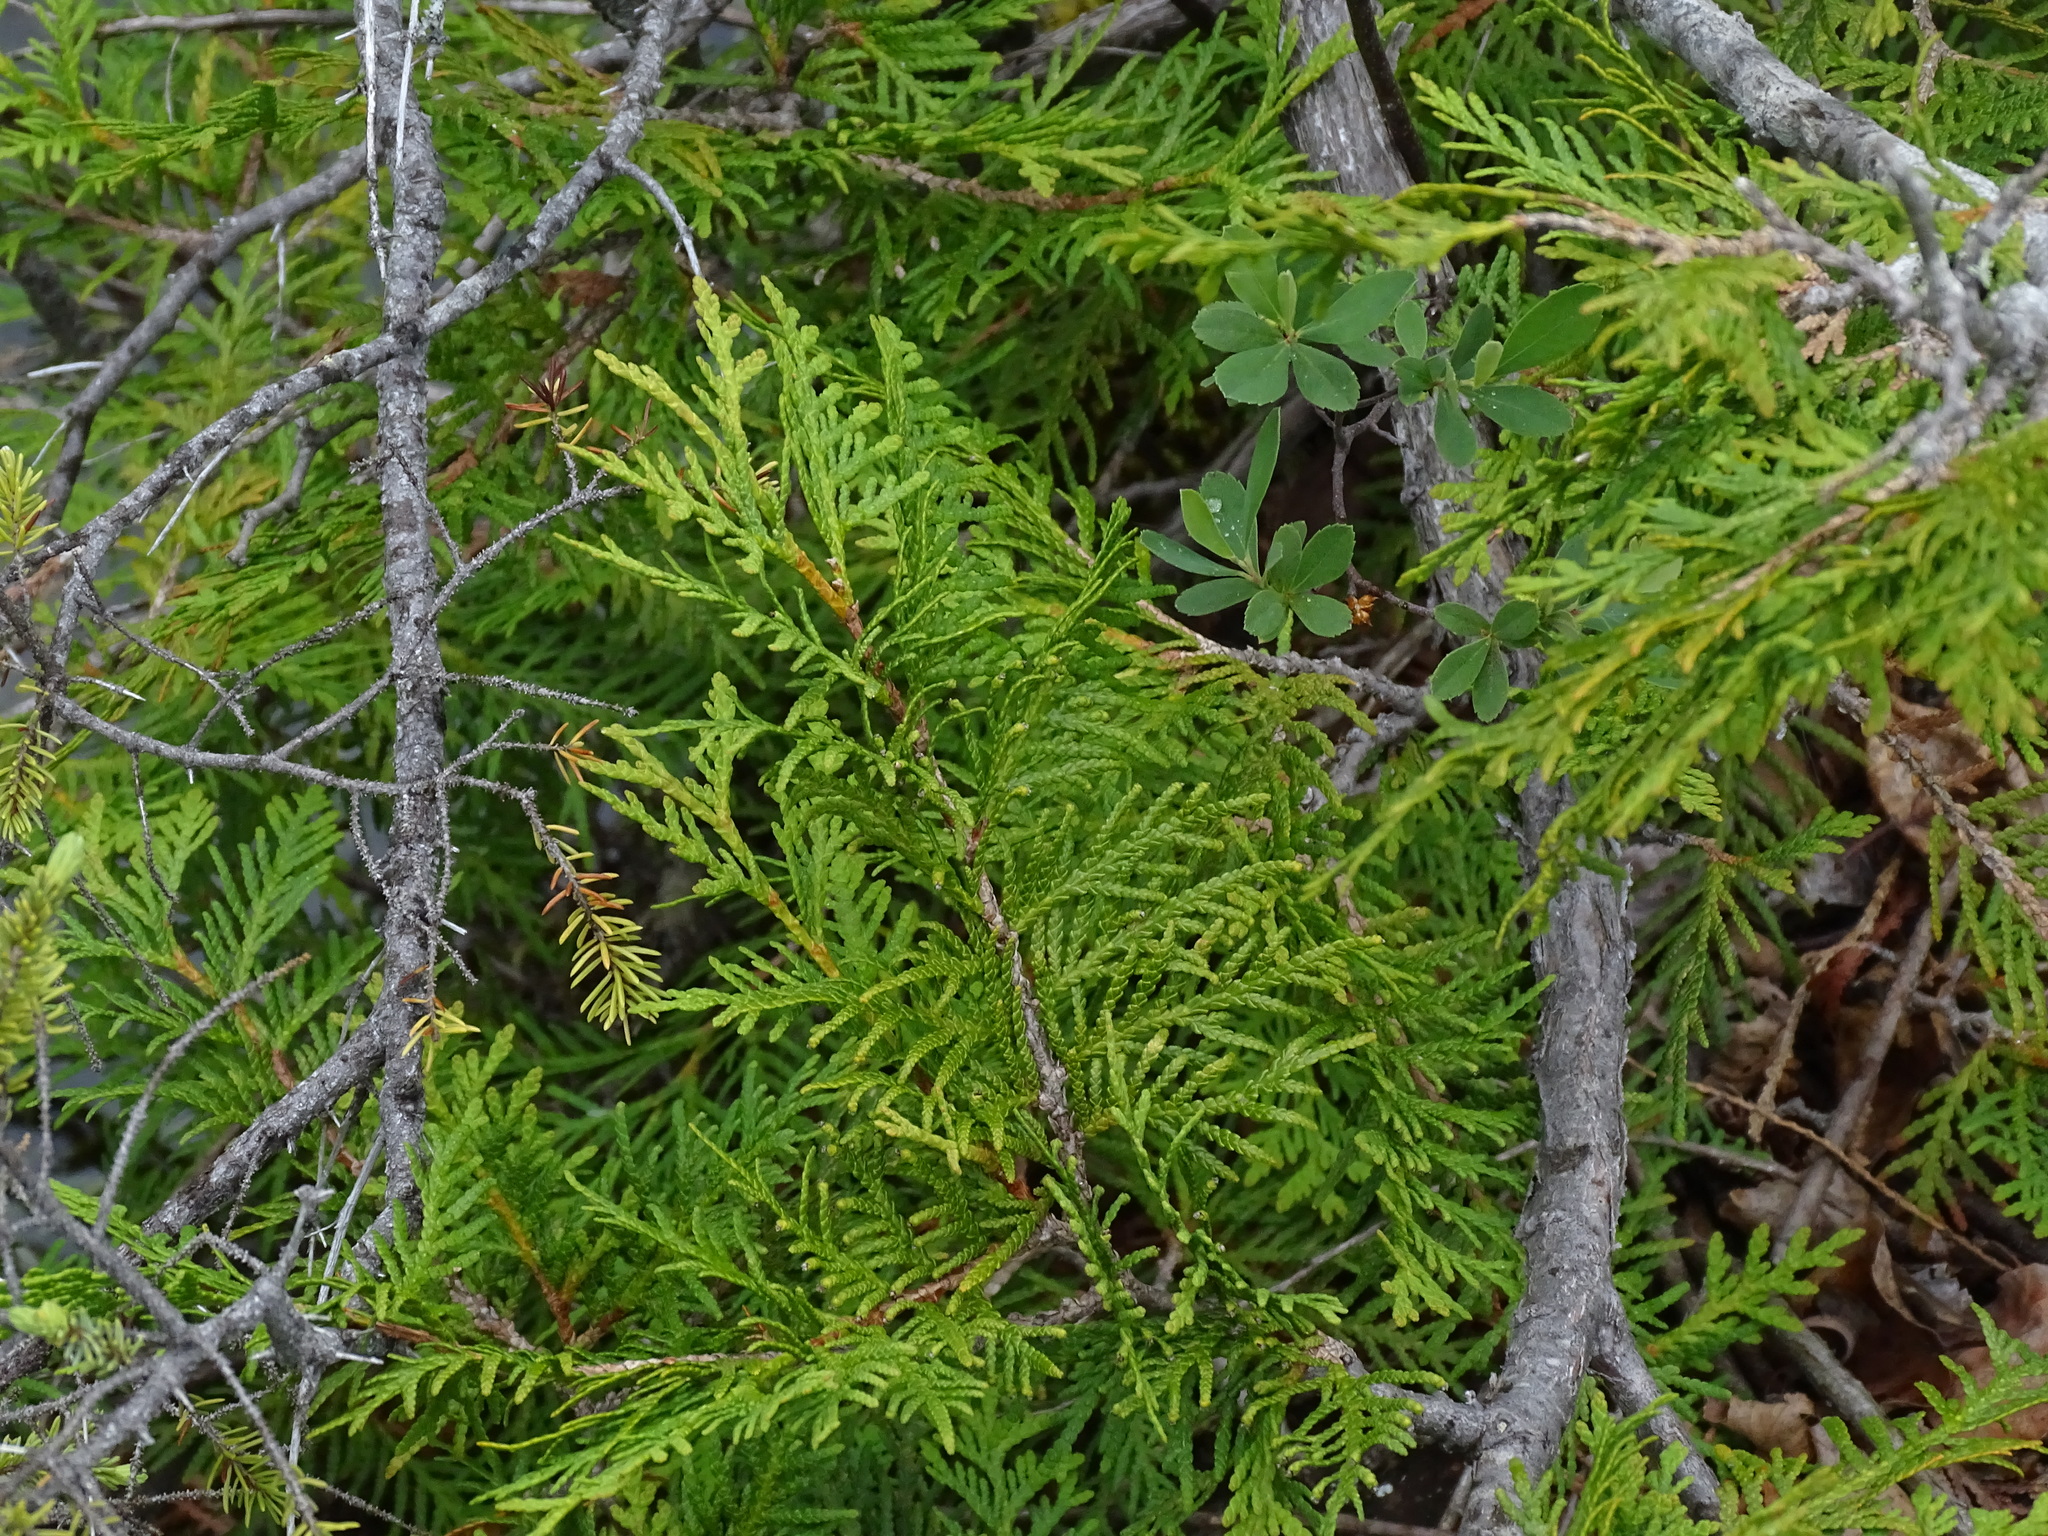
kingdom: Plantae
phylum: Tracheophyta
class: Pinopsida
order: Pinales
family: Cupressaceae
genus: Thuja
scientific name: Thuja occidentalis
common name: Northern white-cedar
